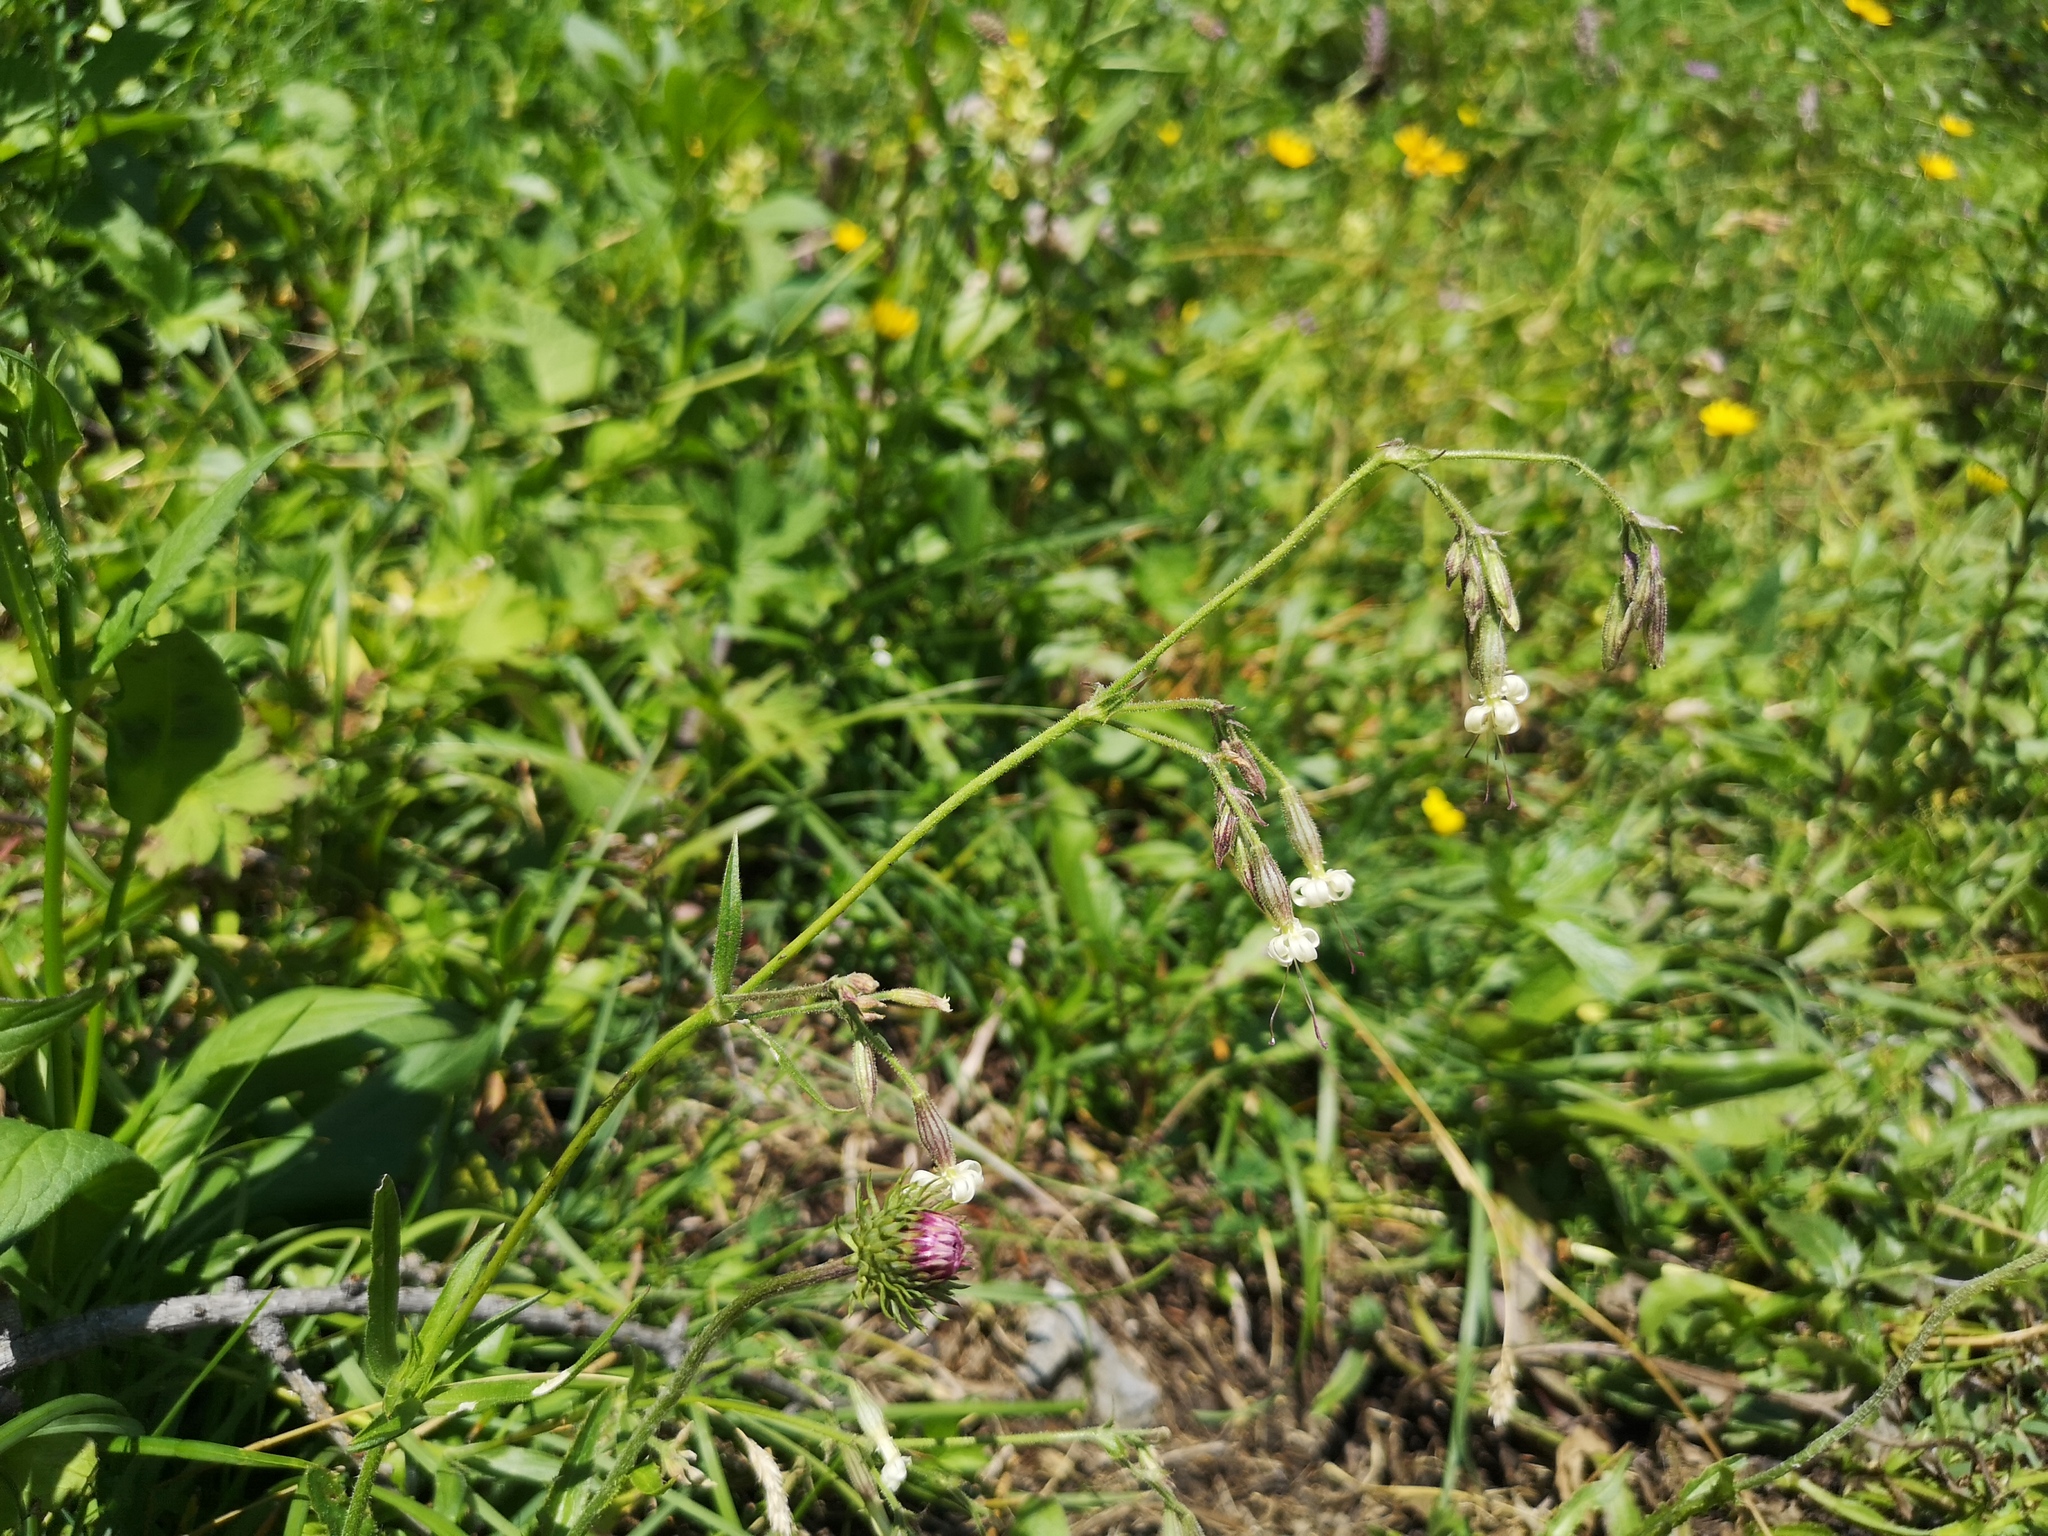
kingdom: Plantae
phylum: Tracheophyta
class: Magnoliopsida
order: Caryophyllales
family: Caryophyllaceae
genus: Silene
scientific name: Silene nutans
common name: Nottingham catchfly
